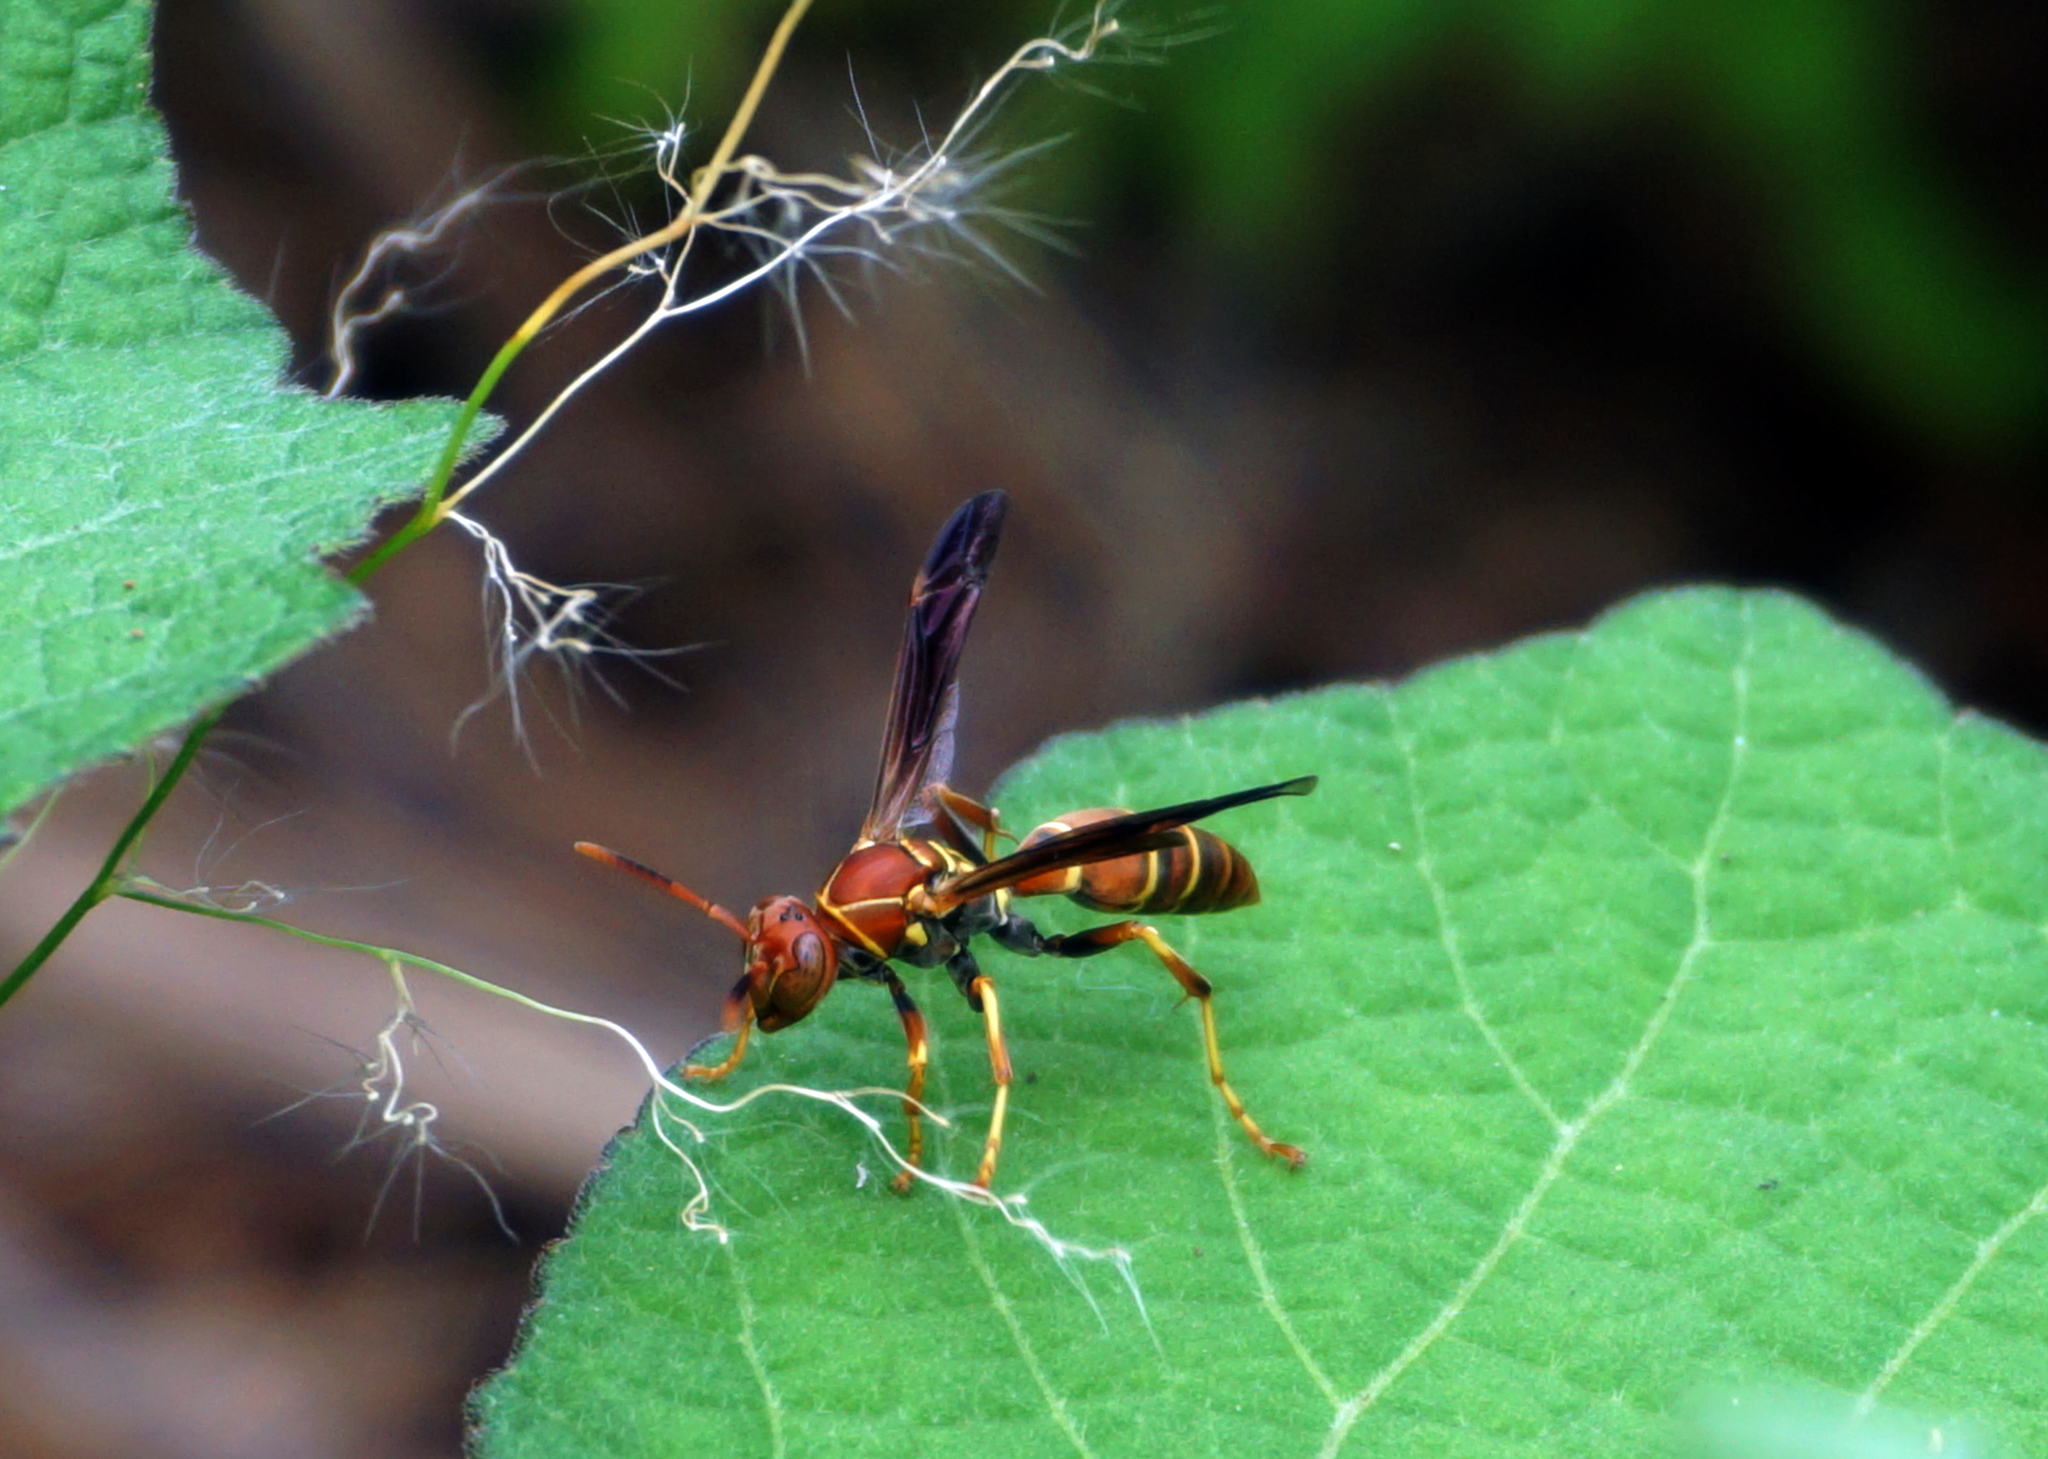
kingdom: Animalia
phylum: Arthropoda
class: Insecta
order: Hymenoptera
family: Eumenidae
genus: Polistes
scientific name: Polistes bahamensis
